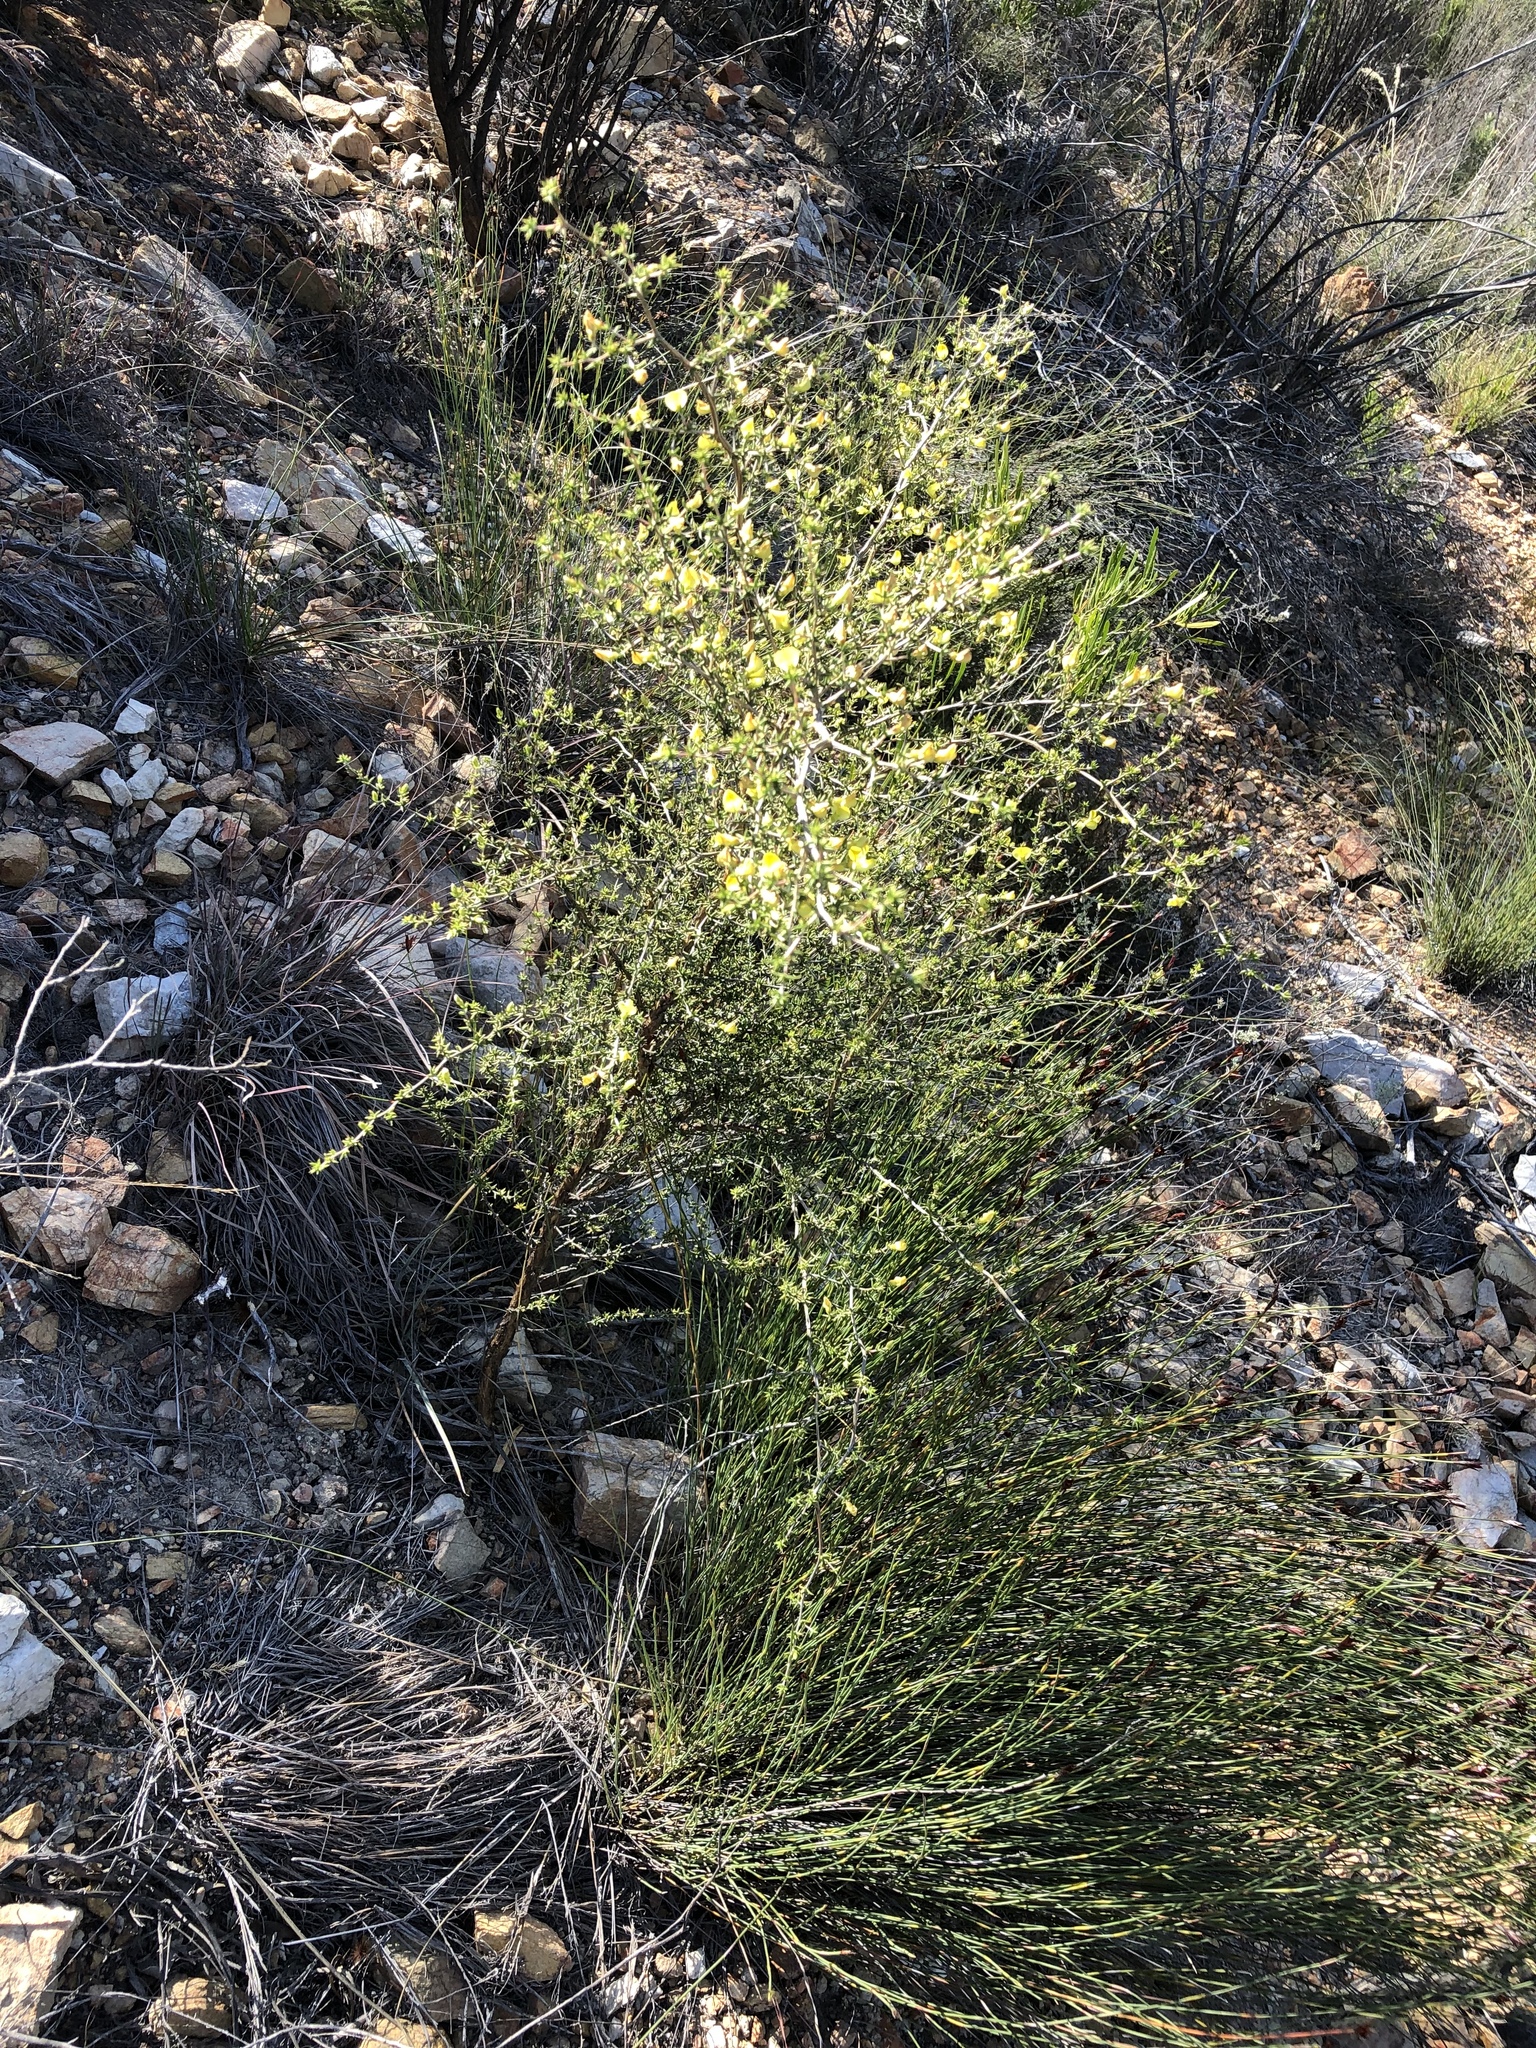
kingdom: Plantae
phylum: Tracheophyta
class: Magnoliopsida
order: Fabales
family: Fabaceae
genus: Aspalathus
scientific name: Aspalathus collina
